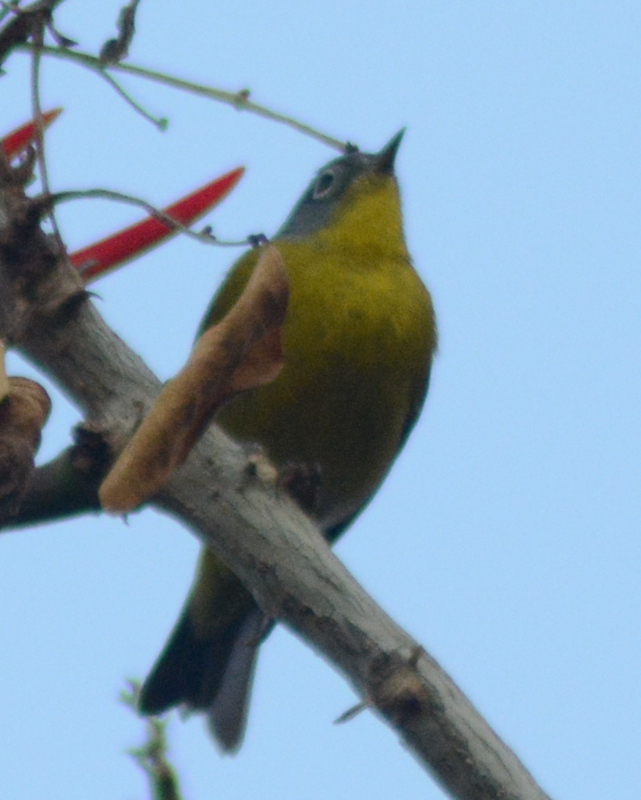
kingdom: Animalia
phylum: Chordata
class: Aves
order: Passeriformes
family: Parulidae
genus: Leiothlypis
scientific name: Leiothlypis ruficapilla
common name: Nashville warbler
